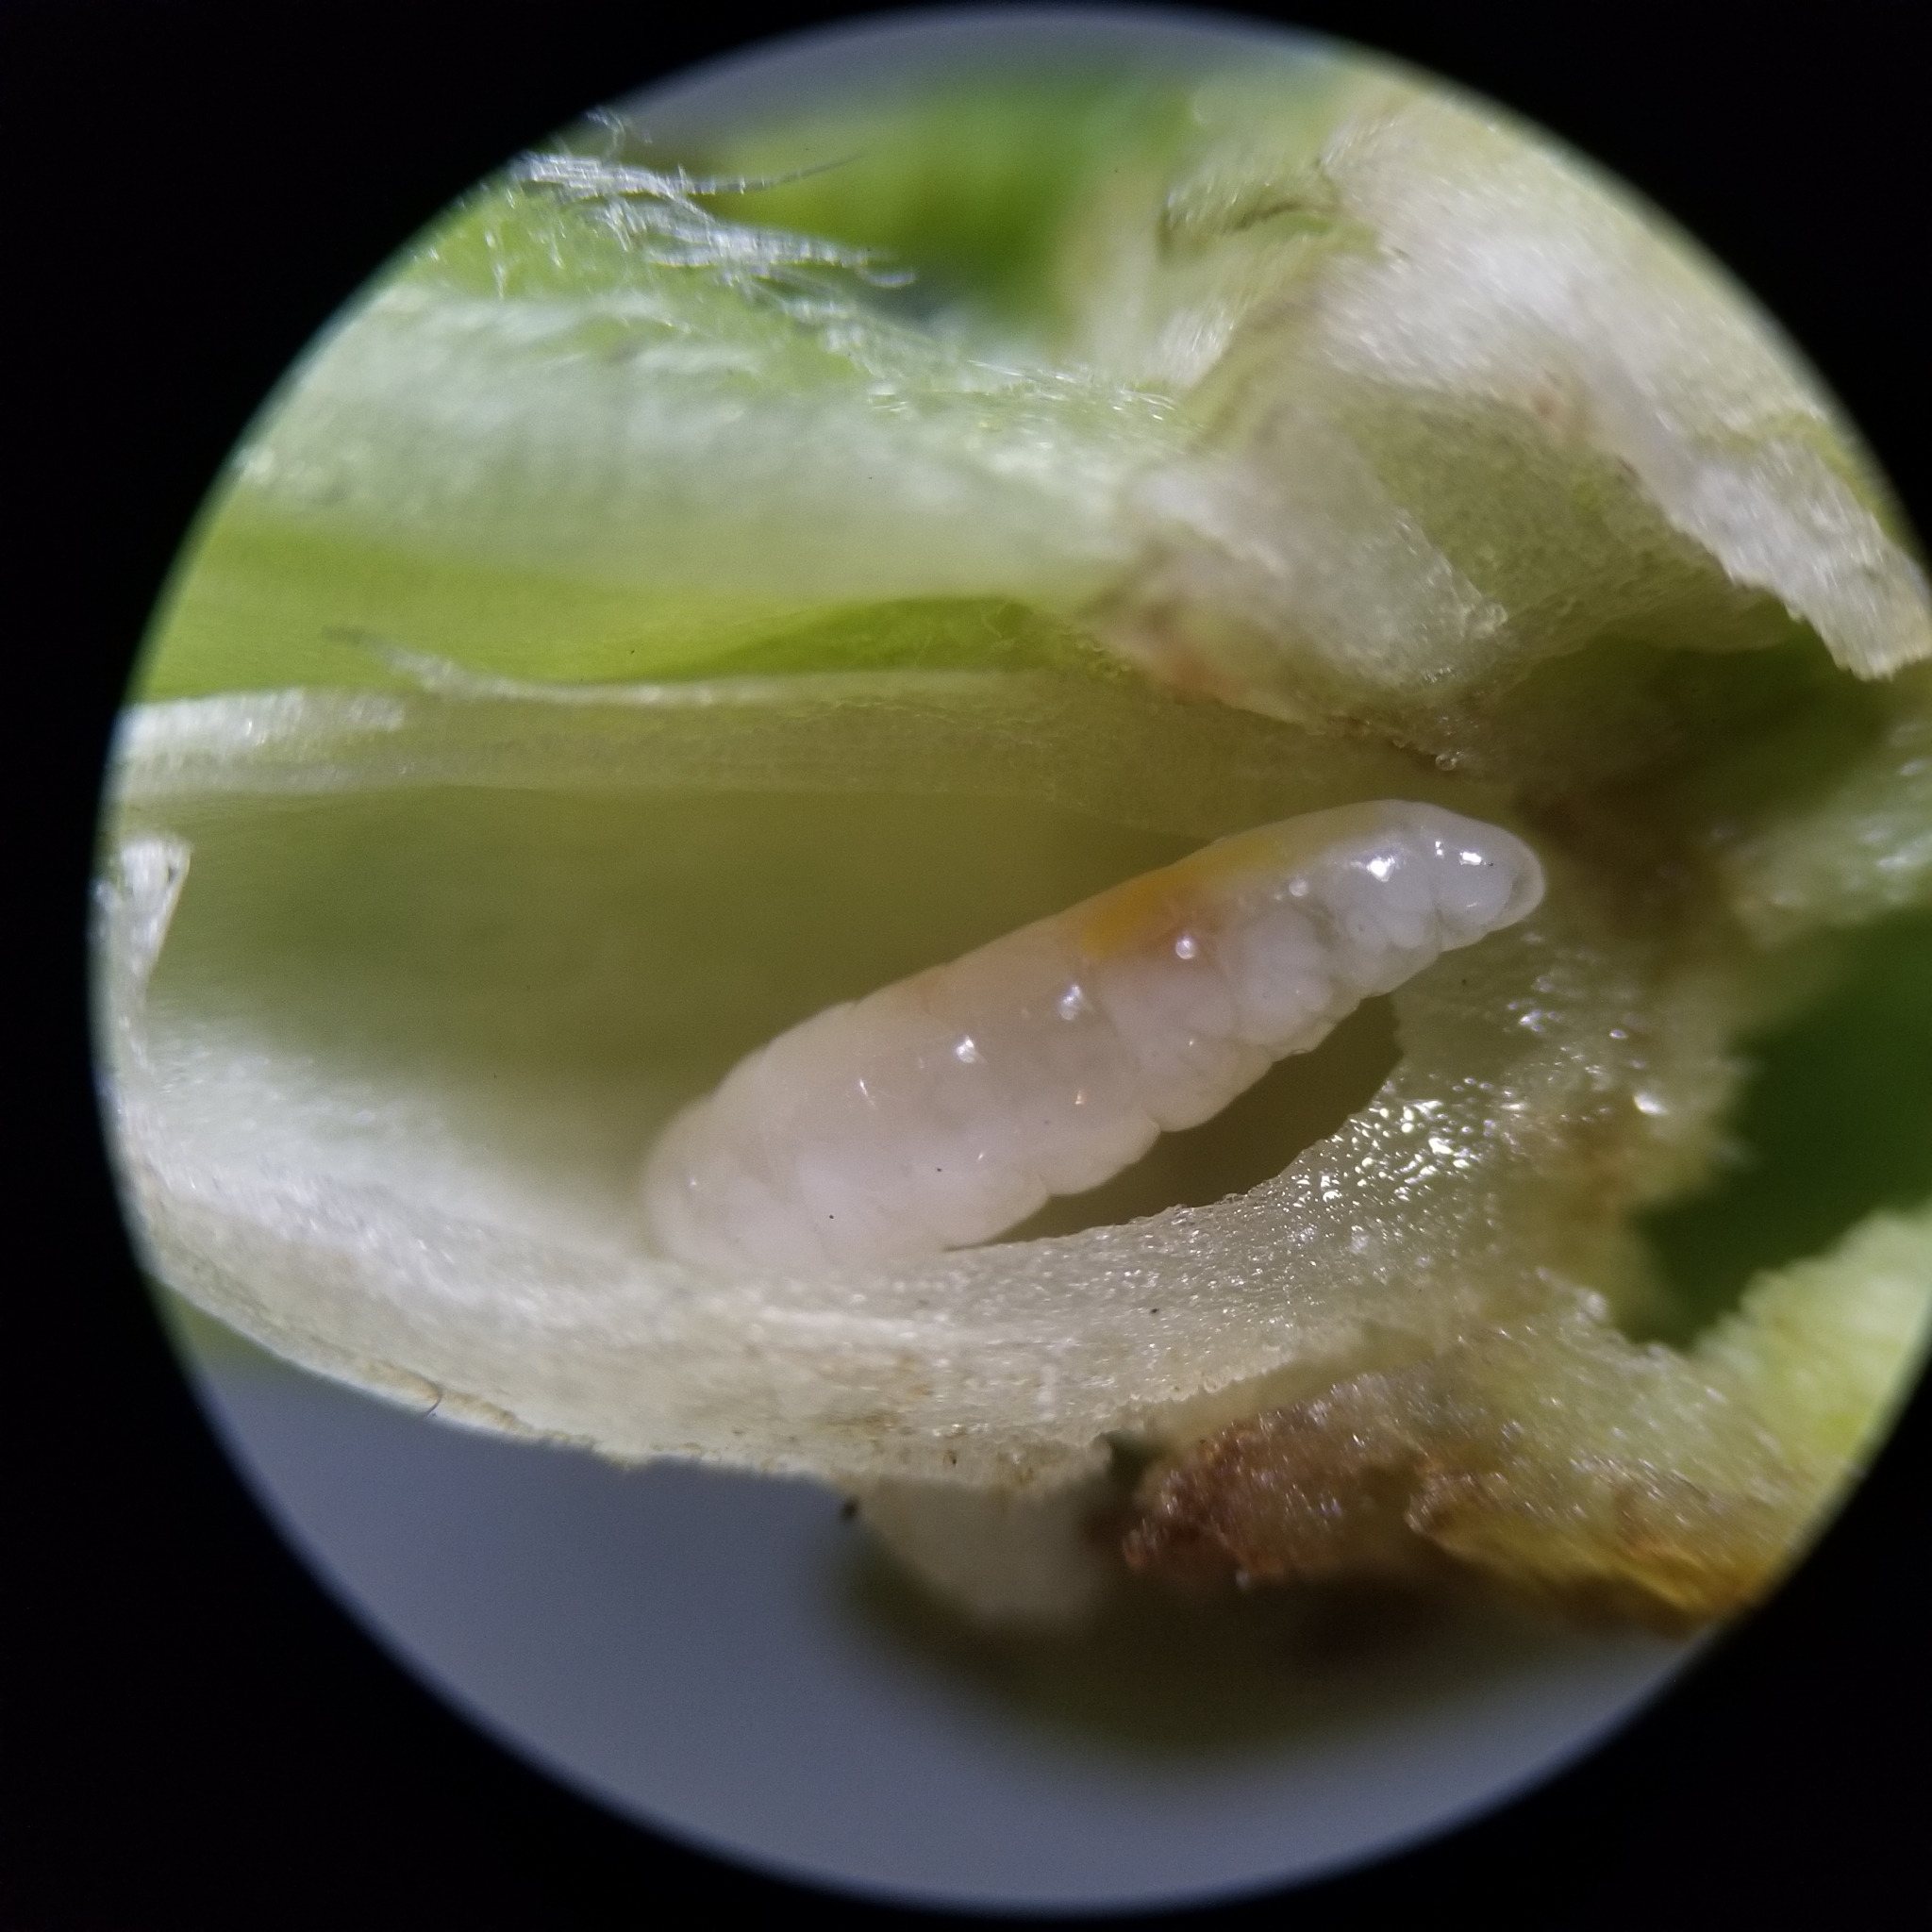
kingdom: Animalia
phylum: Arthropoda
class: Insecta
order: Diptera
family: Cecidomyiidae
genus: Rhopalomyia
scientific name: Rhopalomyia solidaginis
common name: Goldenrod bunch gall midge
